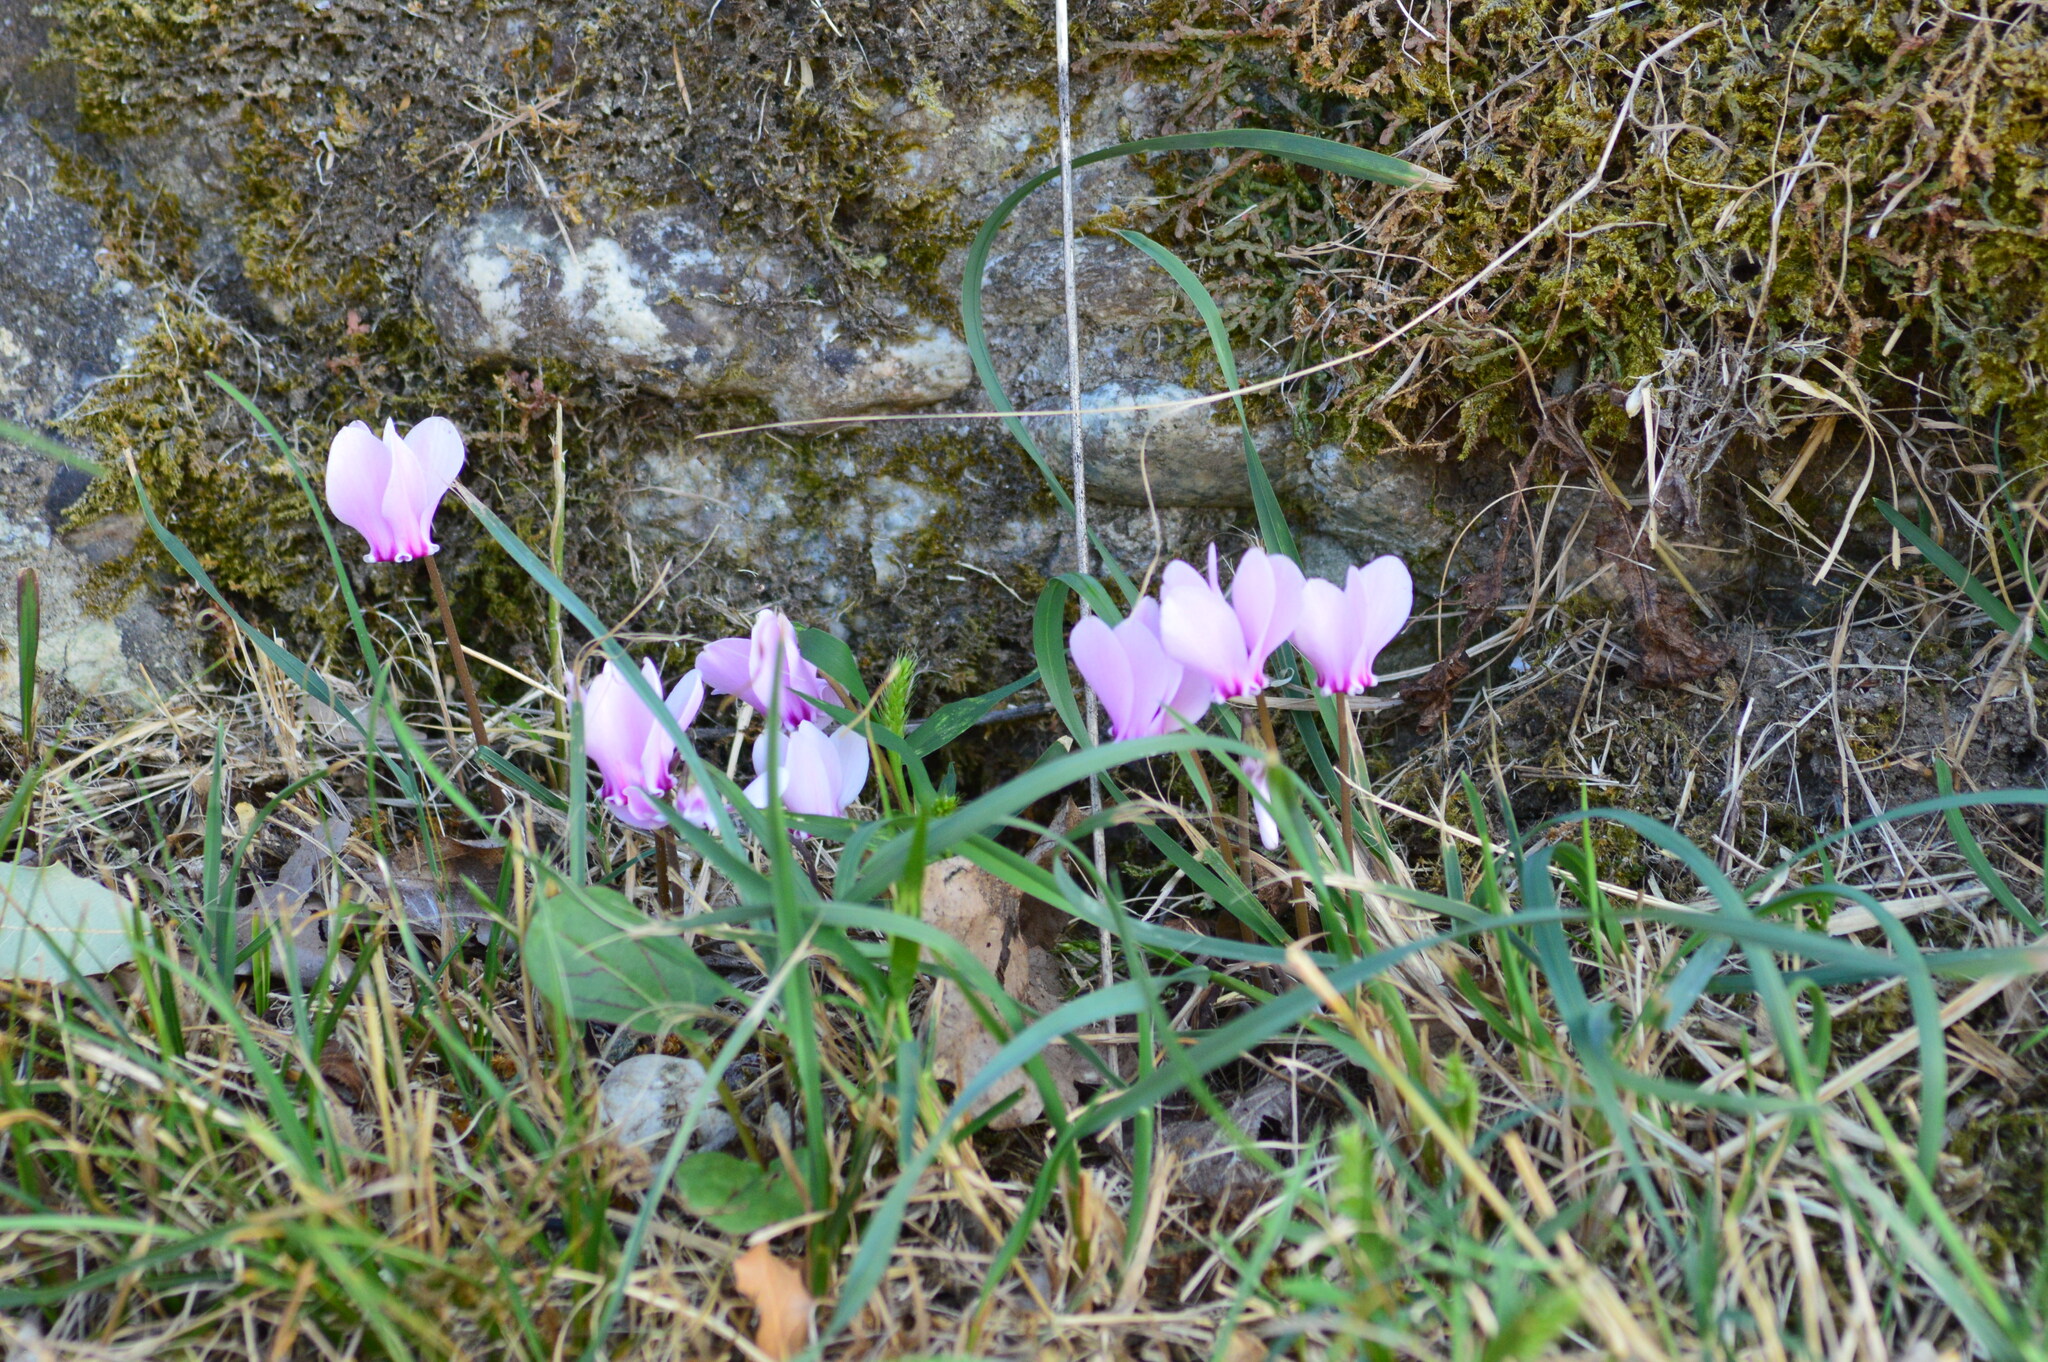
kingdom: Plantae
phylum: Tracheophyta
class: Magnoliopsida
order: Ericales
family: Primulaceae
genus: Cyclamen
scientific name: Cyclamen hederifolium
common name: Sowbread
